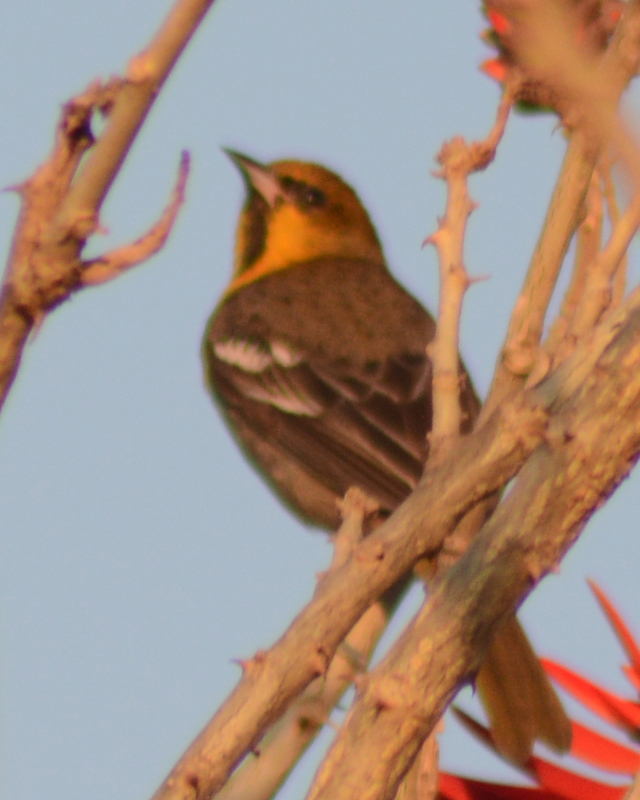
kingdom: Animalia
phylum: Chordata
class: Aves
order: Passeriformes
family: Icteridae
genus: Icterus
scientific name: Icterus abeillei
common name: Black-backed oriole
